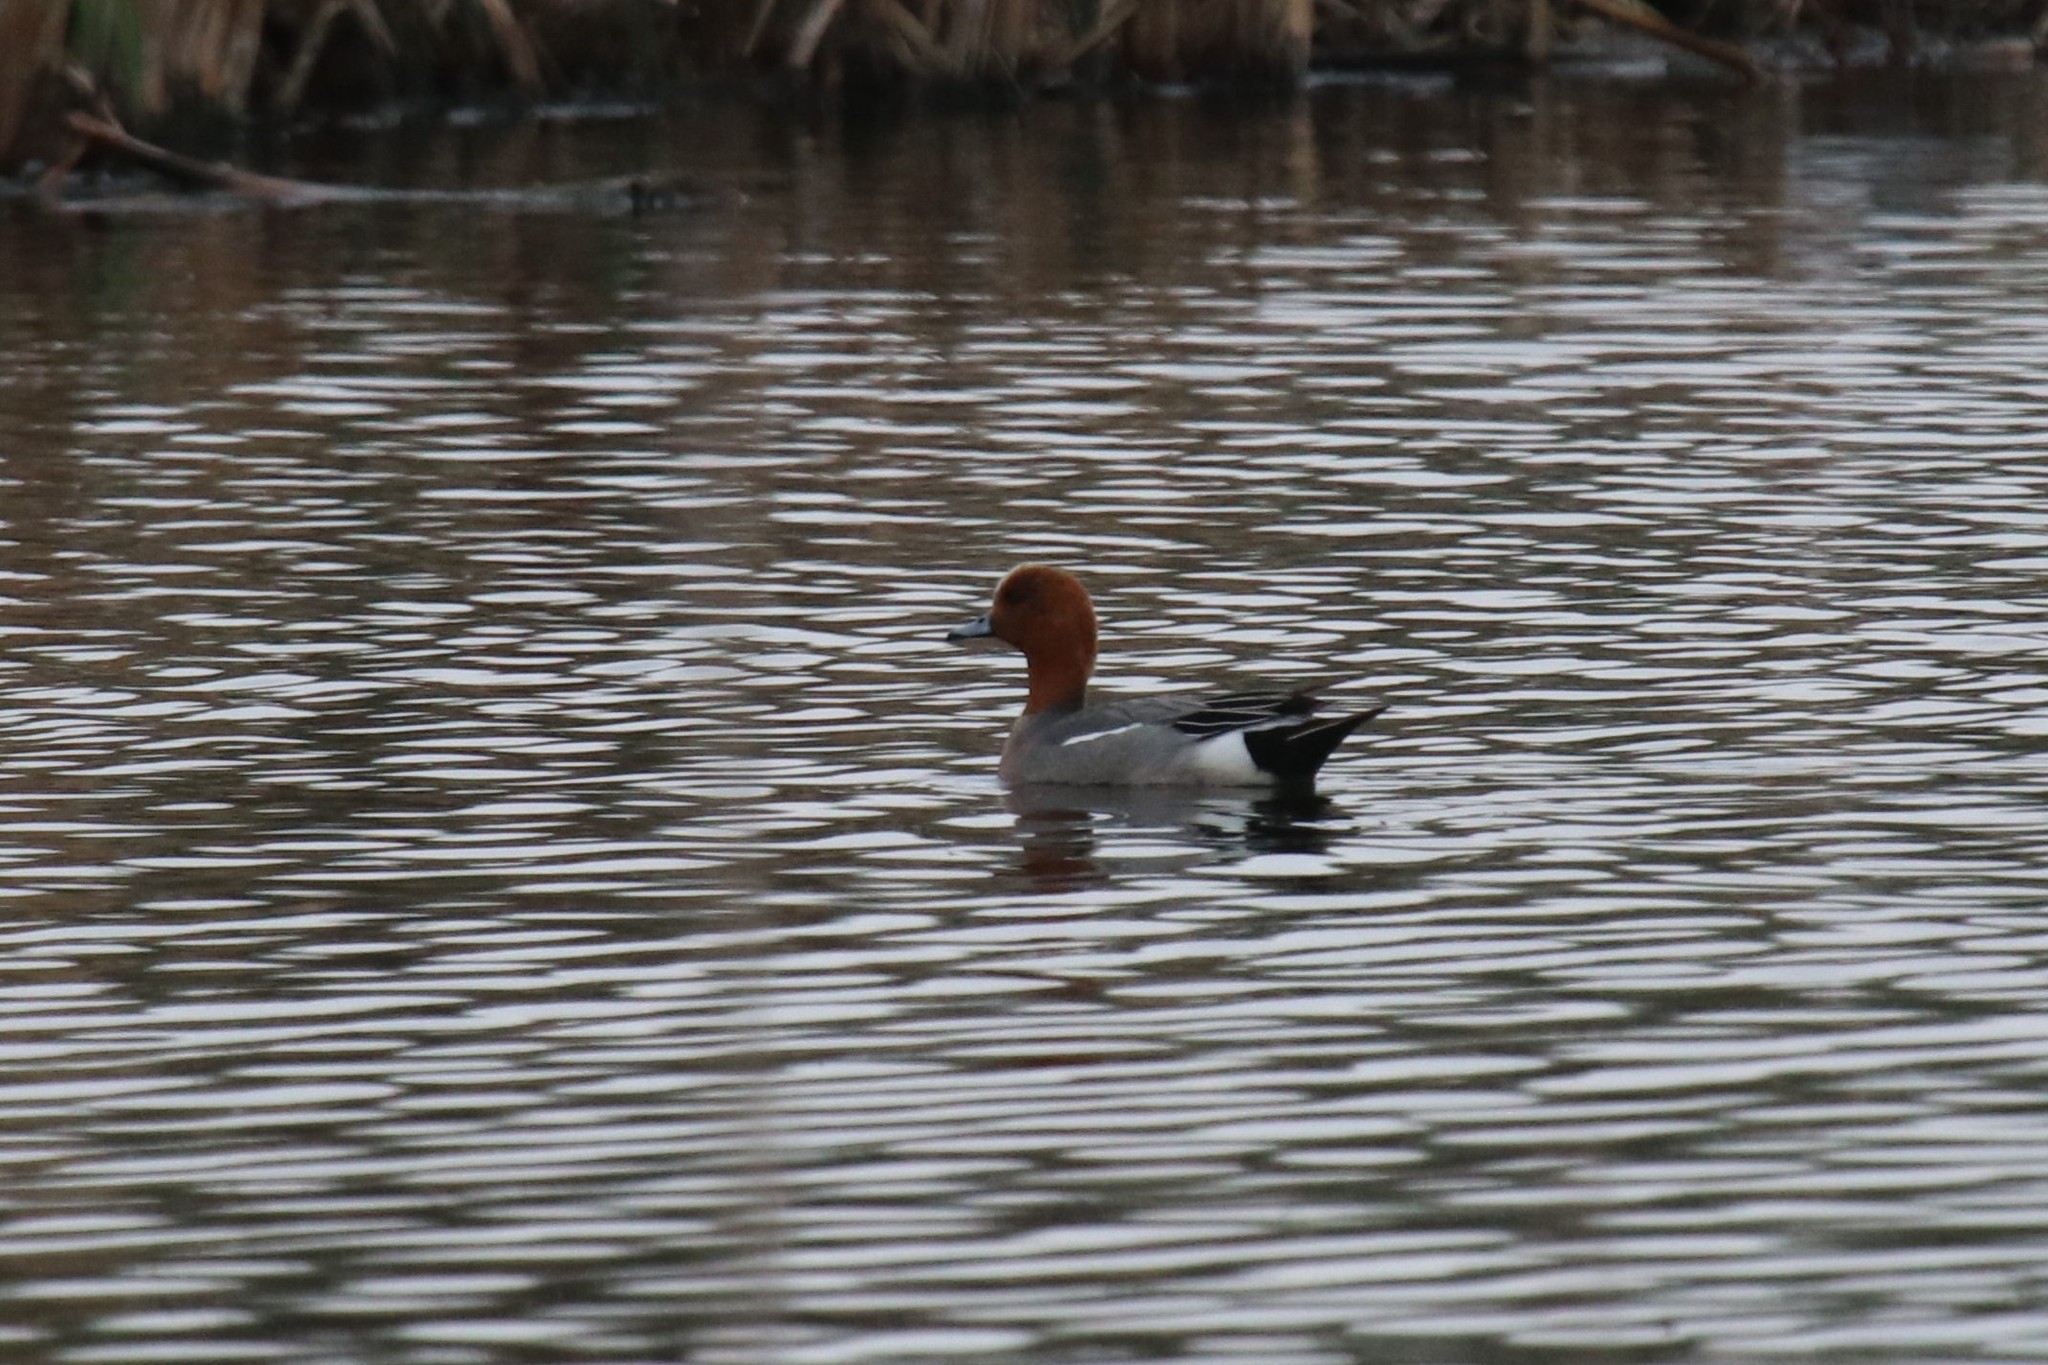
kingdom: Animalia
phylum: Chordata
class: Aves
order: Anseriformes
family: Anatidae
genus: Mareca
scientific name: Mareca penelope
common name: Eurasian wigeon
